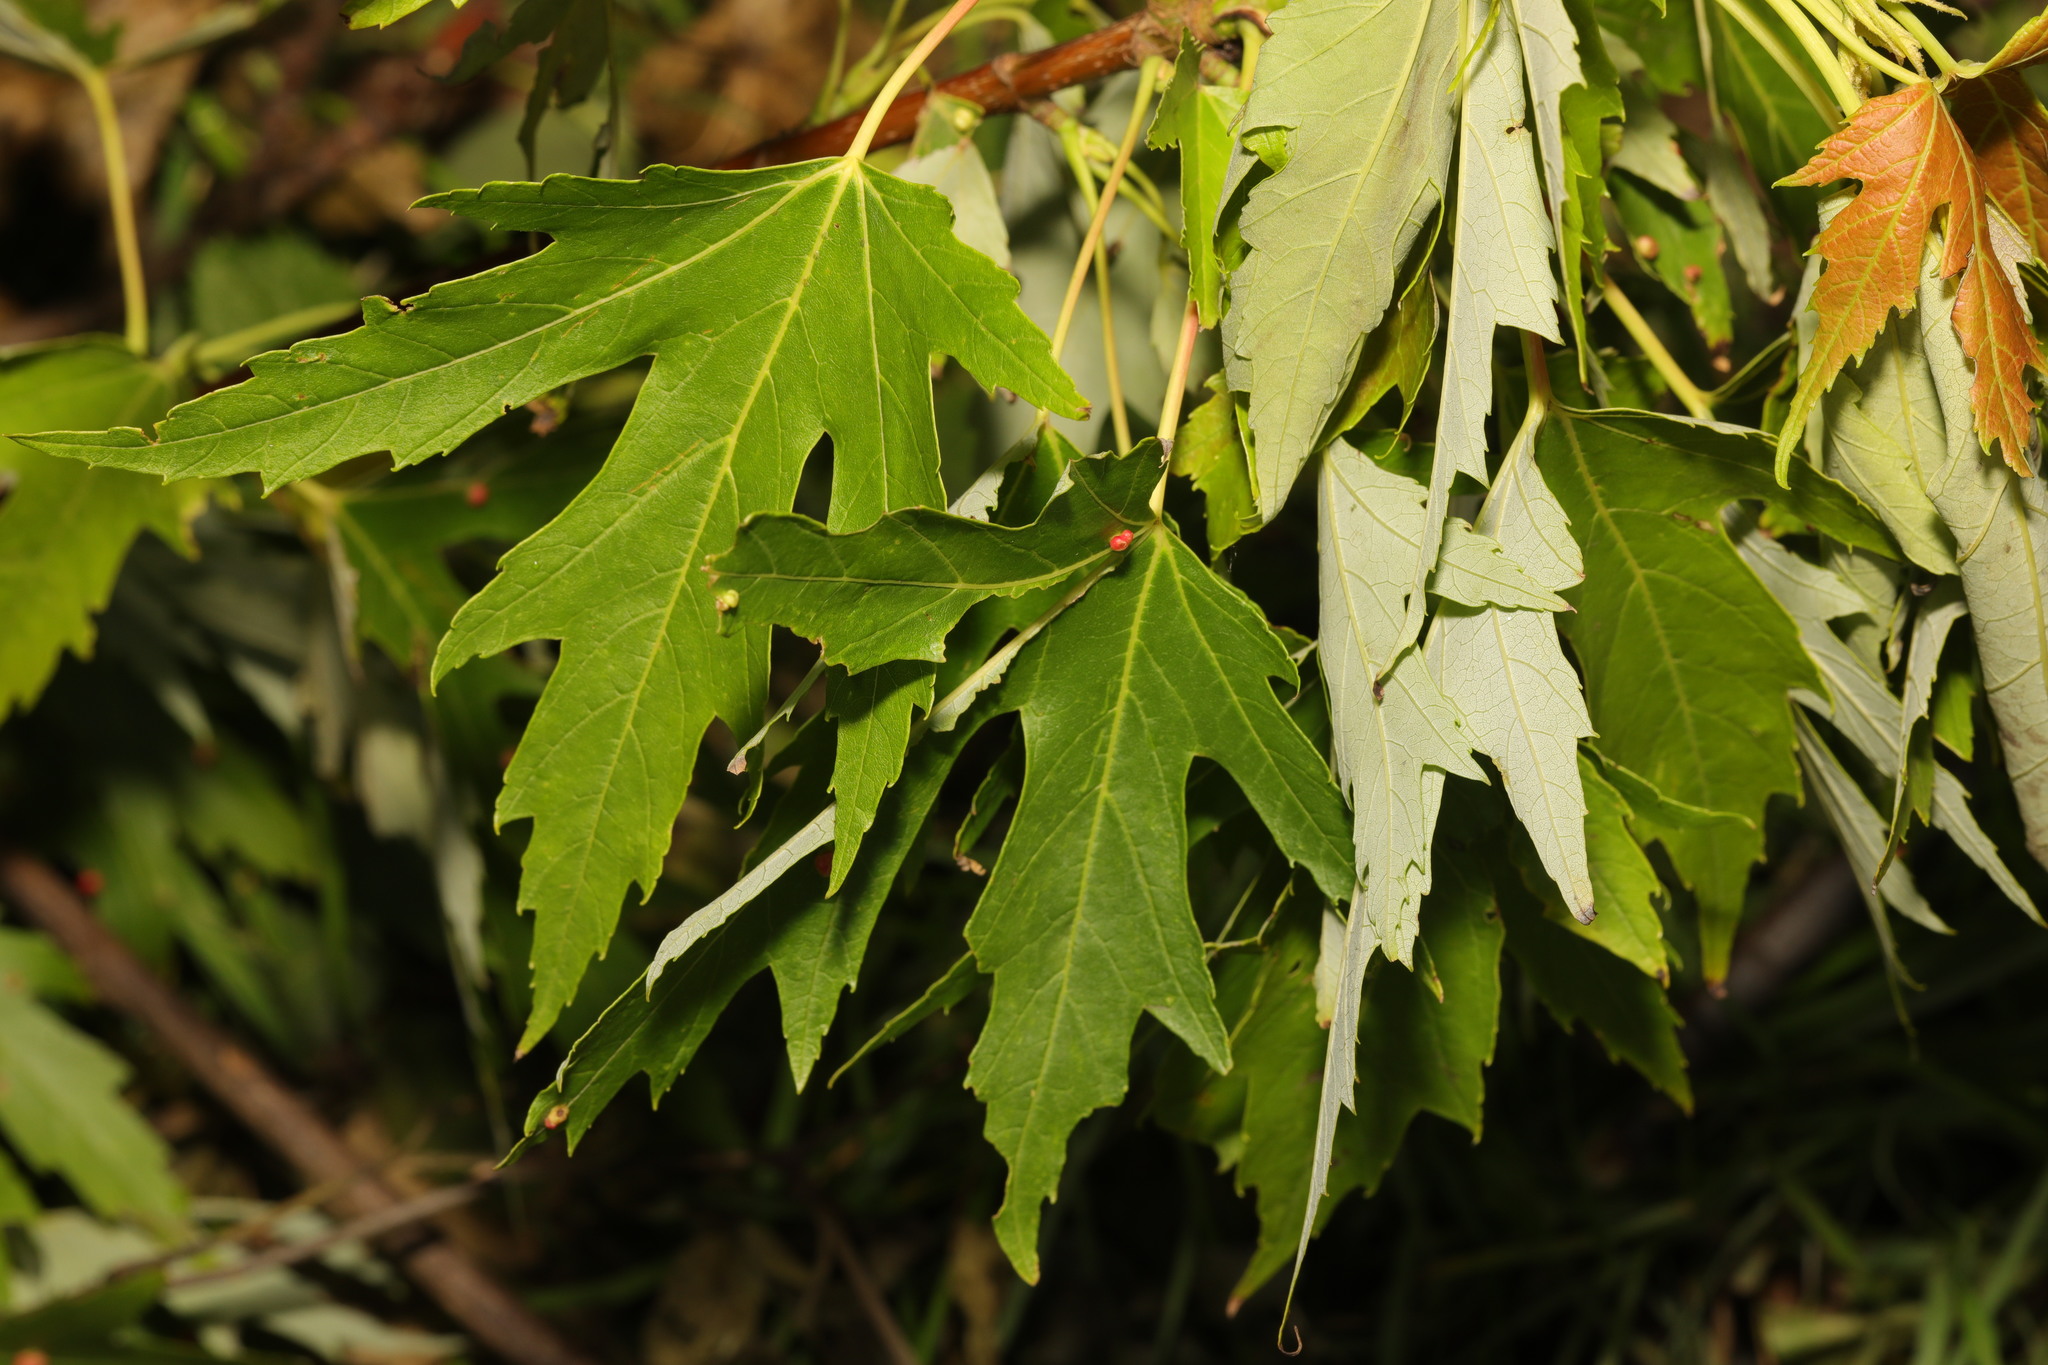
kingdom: Plantae
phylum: Tracheophyta
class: Magnoliopsida
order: Sapindales
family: Sapindaceae
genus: Acer
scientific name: Acer saccharinum
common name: Silver maple
